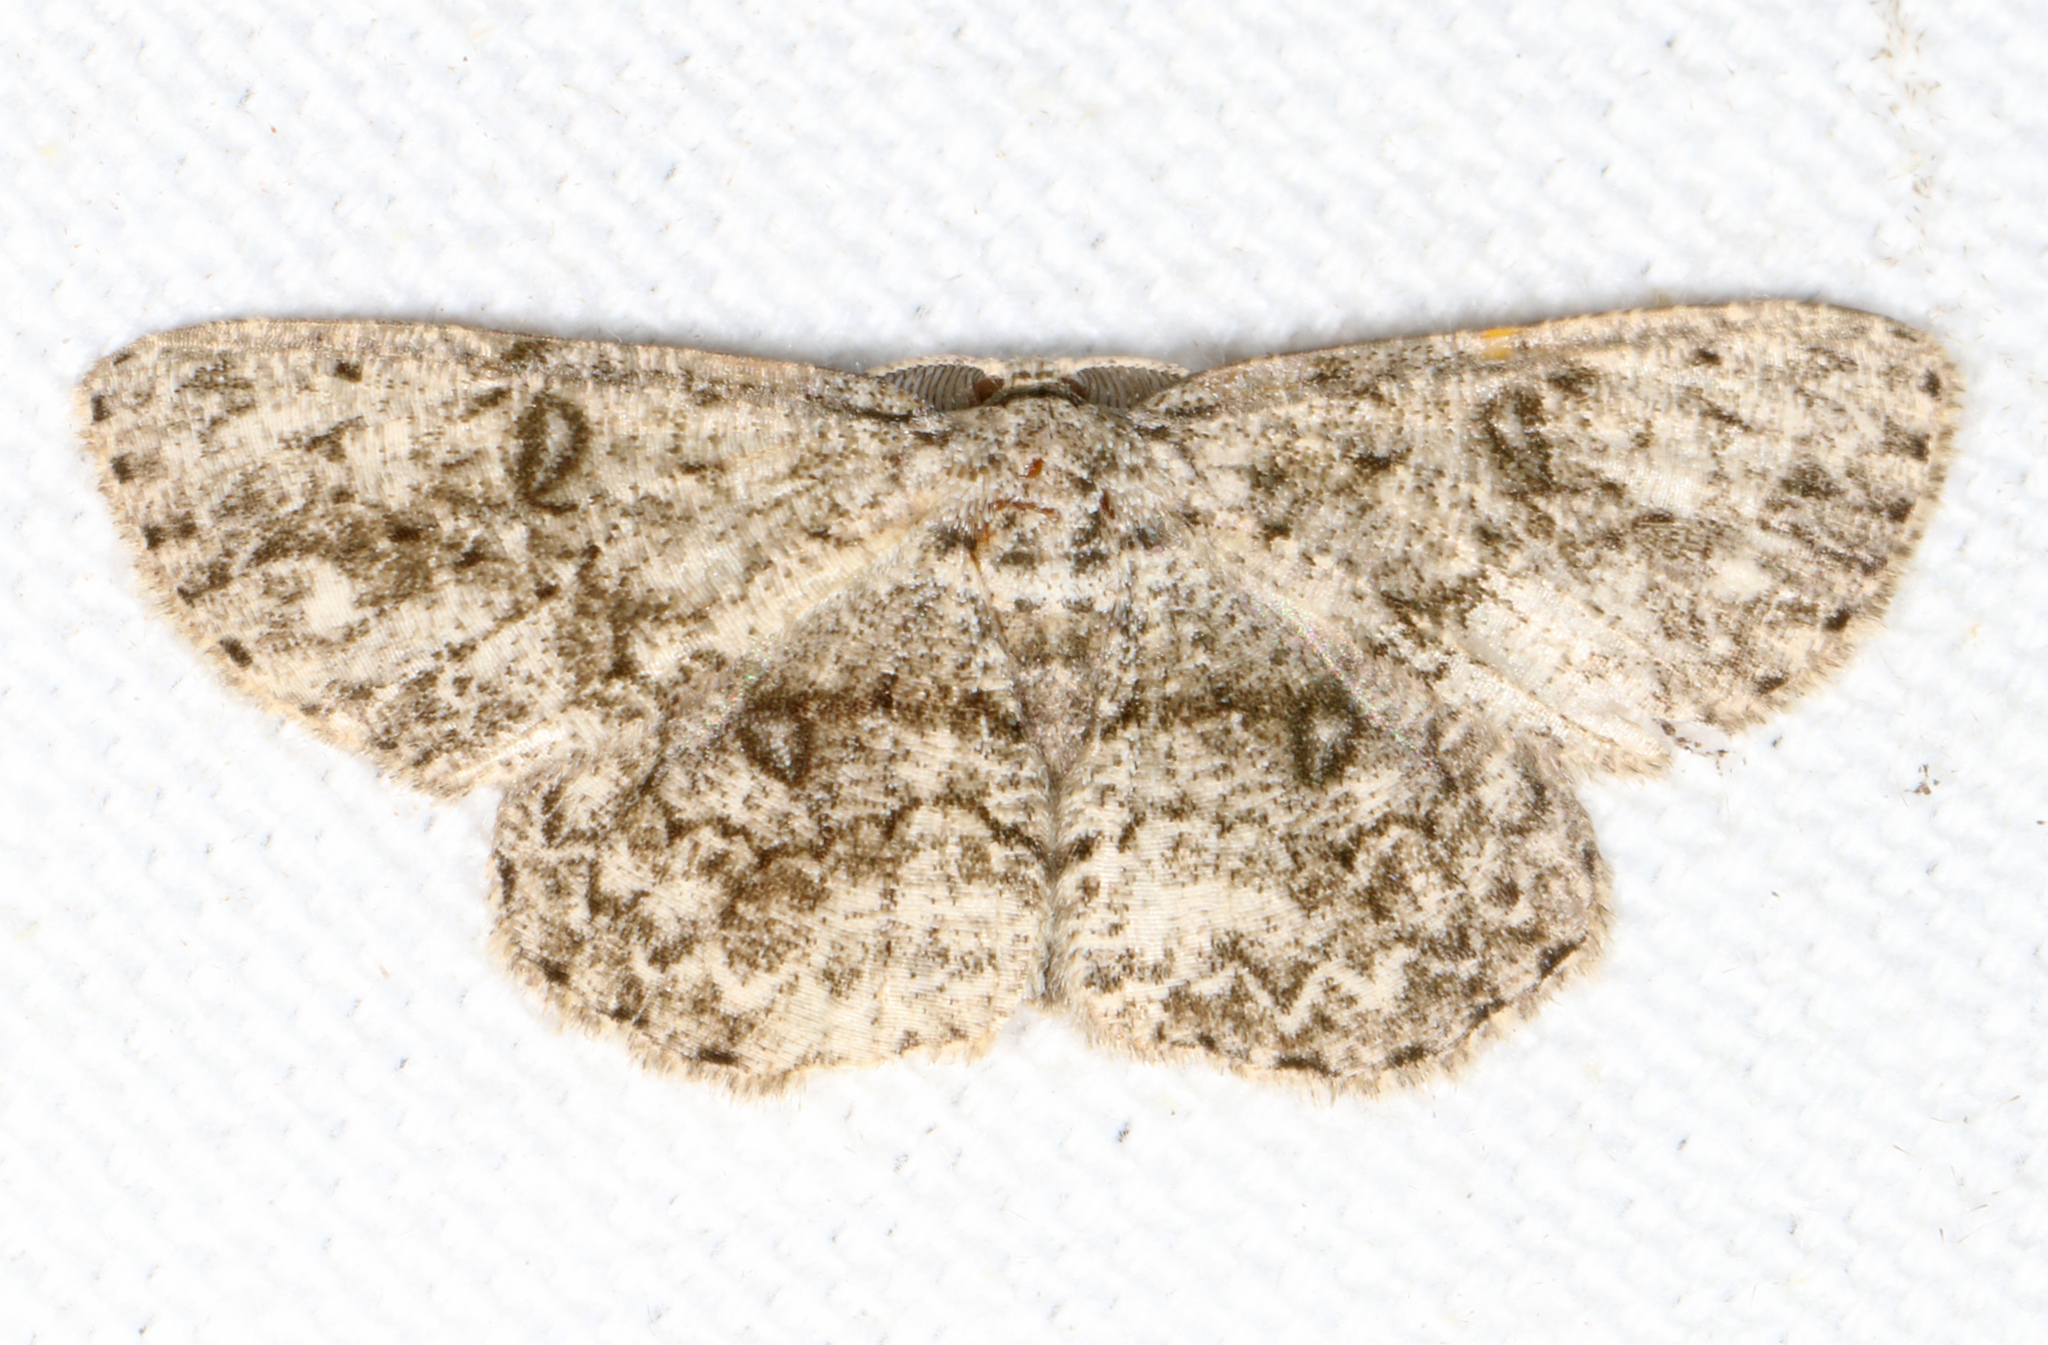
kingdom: Animalia
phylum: Arthropoda
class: Insecta
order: Lepidoptera
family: Geometridae
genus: Hypomecis
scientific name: Hypomecis umbrosaria
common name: Umber moth
